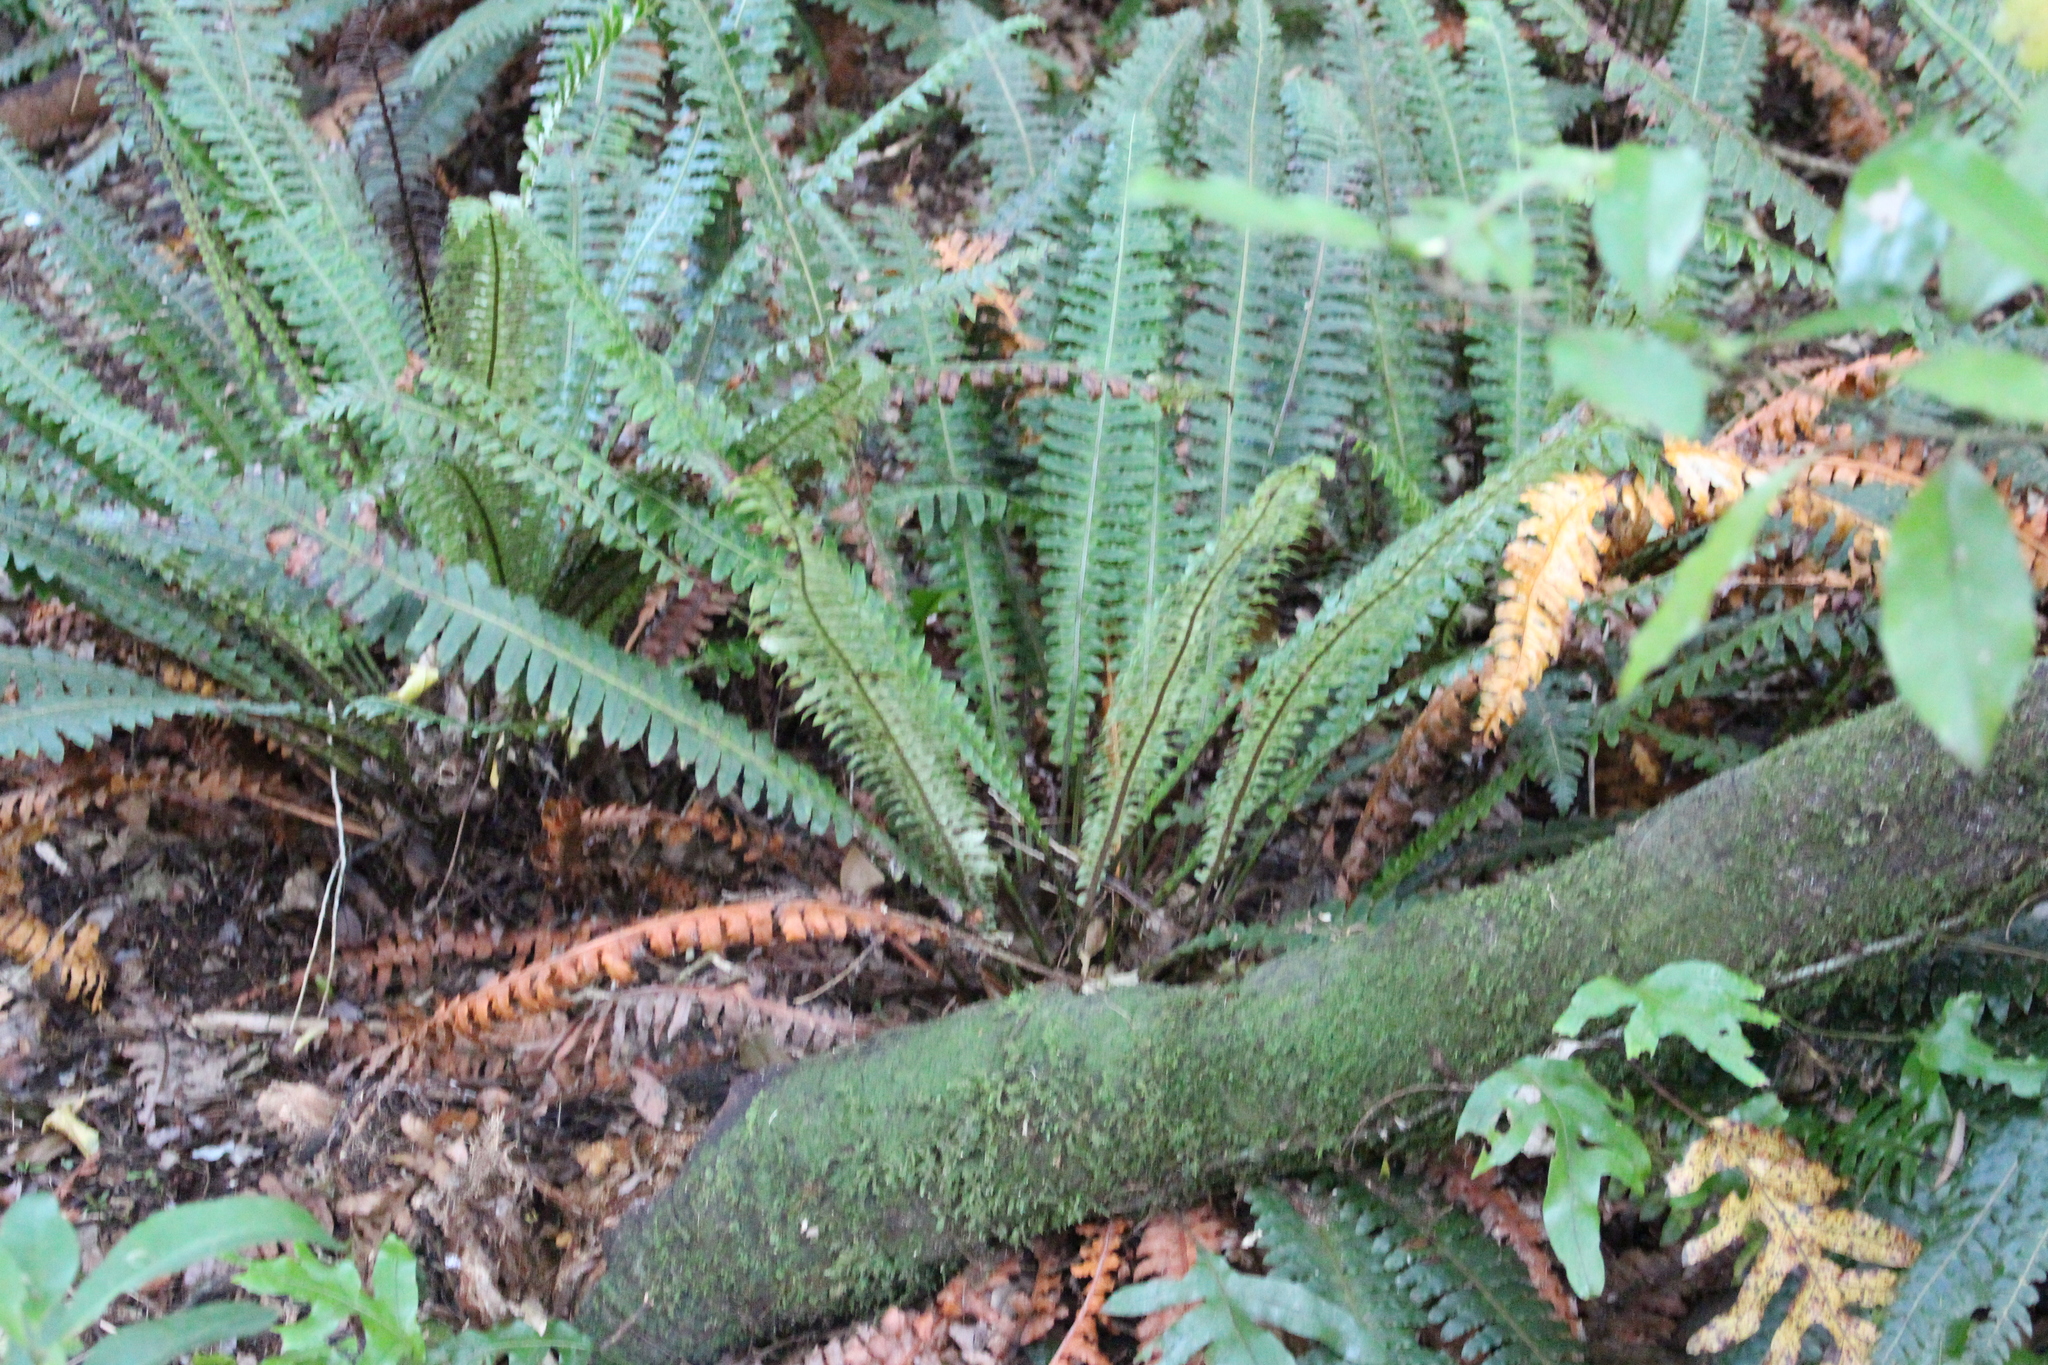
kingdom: Plantae
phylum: Tracheophyta
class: Polypodiopsida
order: Polypodiales
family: Blechnaceae
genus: Lomaria
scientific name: Lomaria discolor
